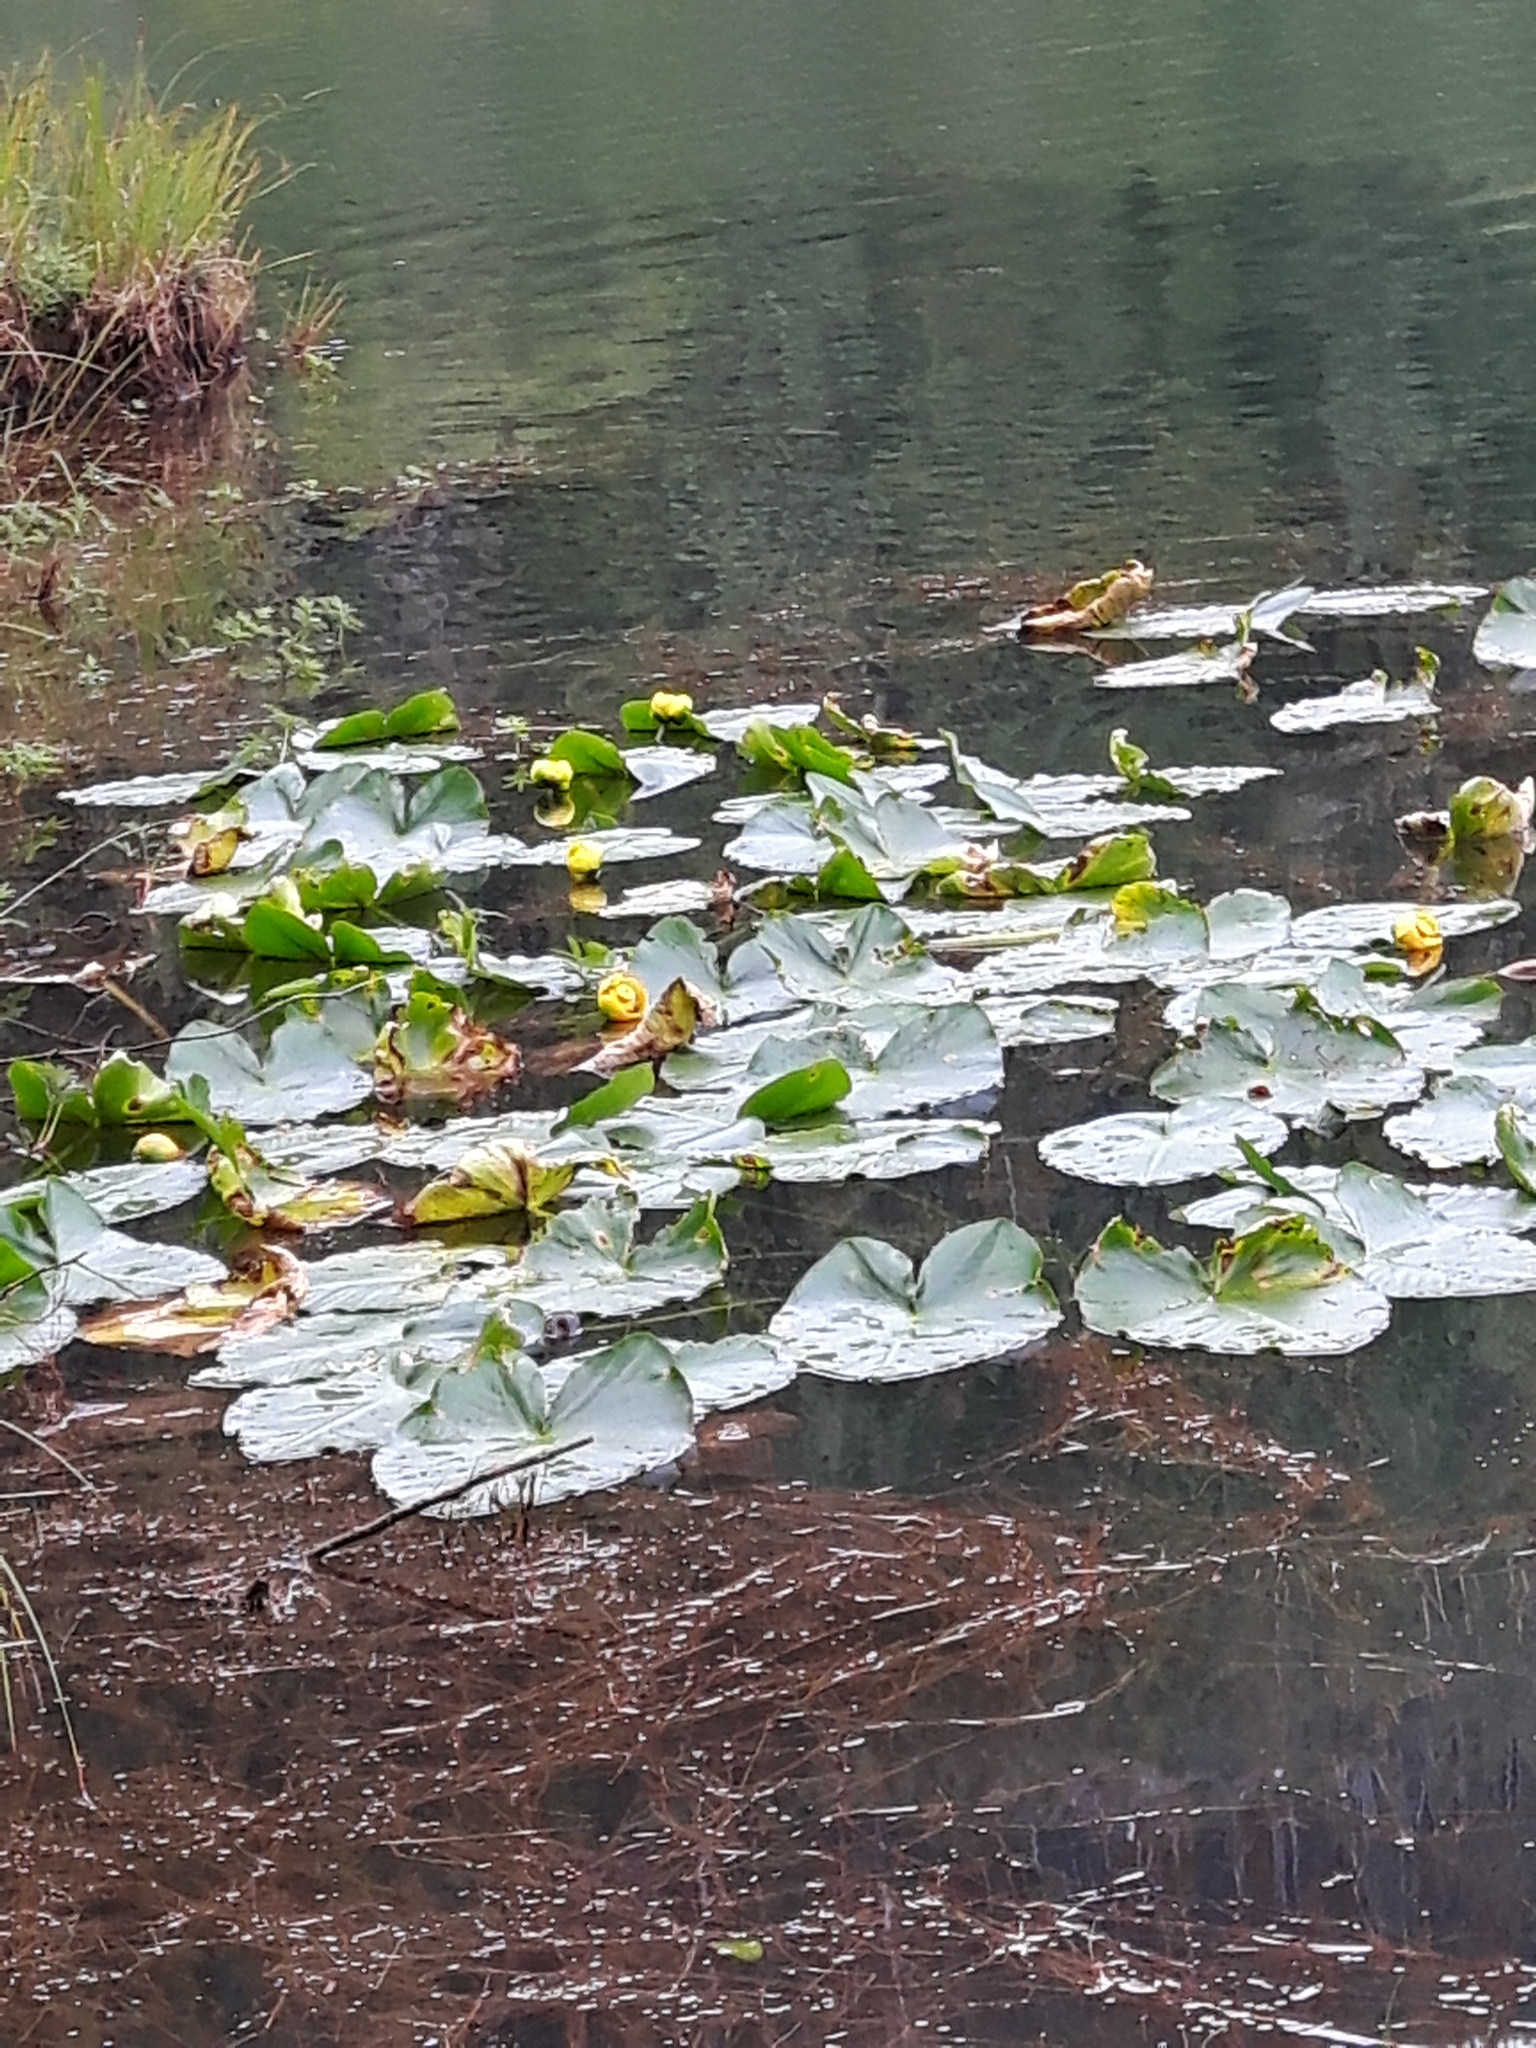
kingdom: Plantae
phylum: Tracheophyta
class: Magnoliopsida
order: Nymphaeales
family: Nymphaeaceae
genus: Nuphar
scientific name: Nuphar polysepala
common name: Rocky mountain cow-lily
